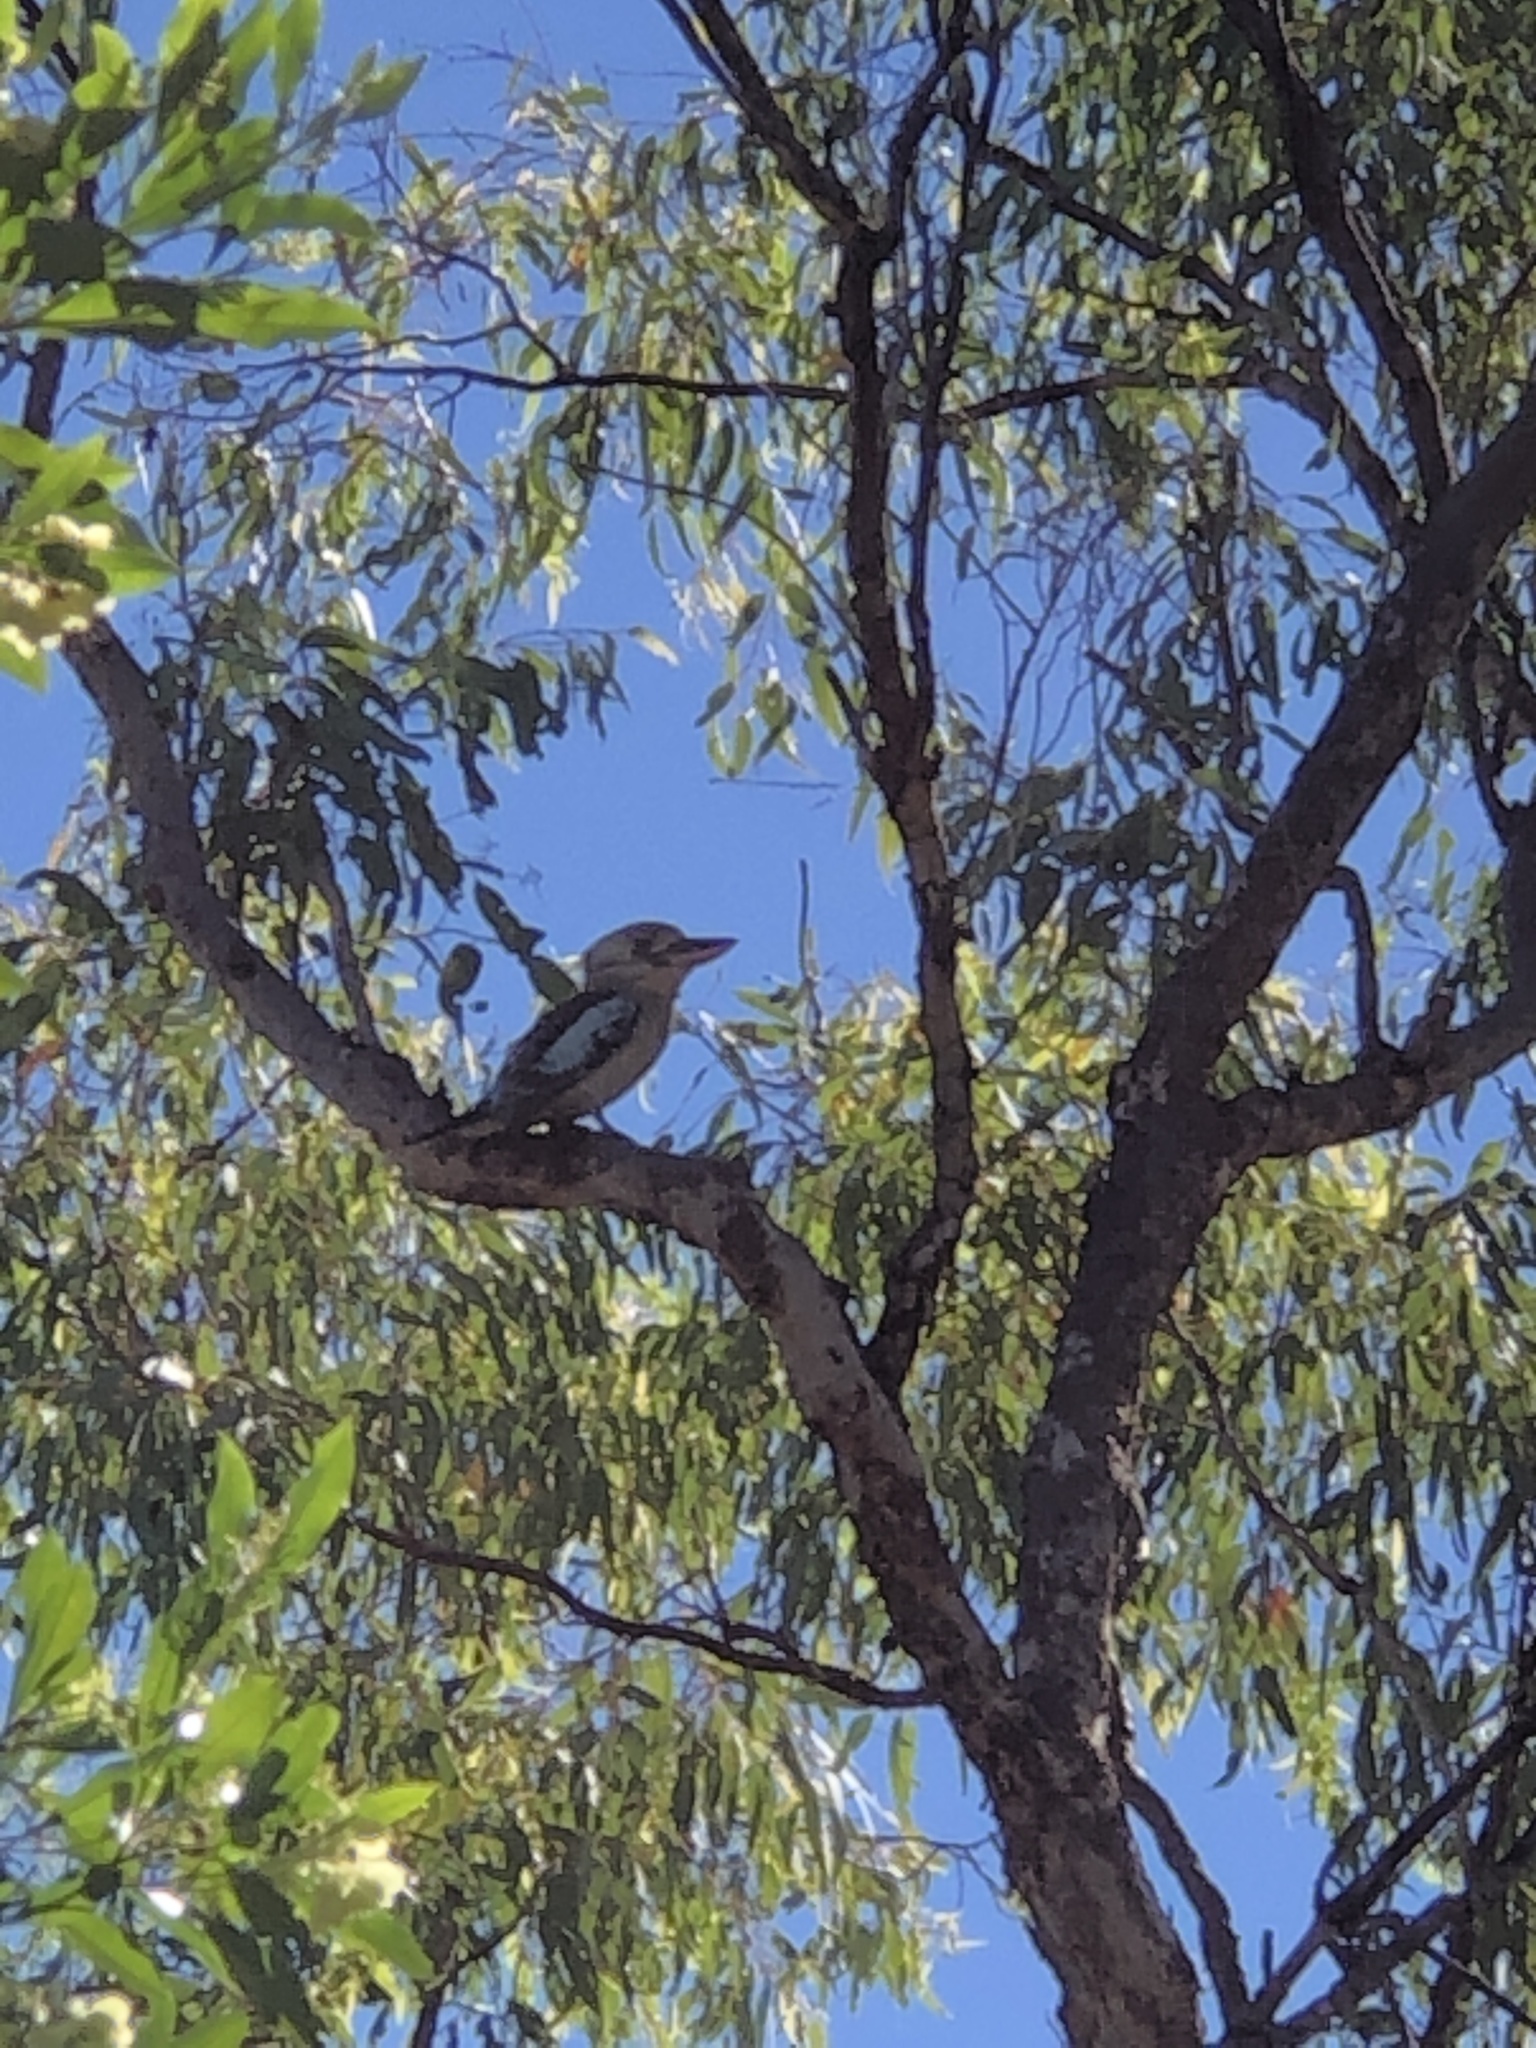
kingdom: Animalia
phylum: Chordata
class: Aves
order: Coraciiformes
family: Alcedinidae
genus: Dacelo
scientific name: Dacelo leachii
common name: Blue-winged kookaburra
